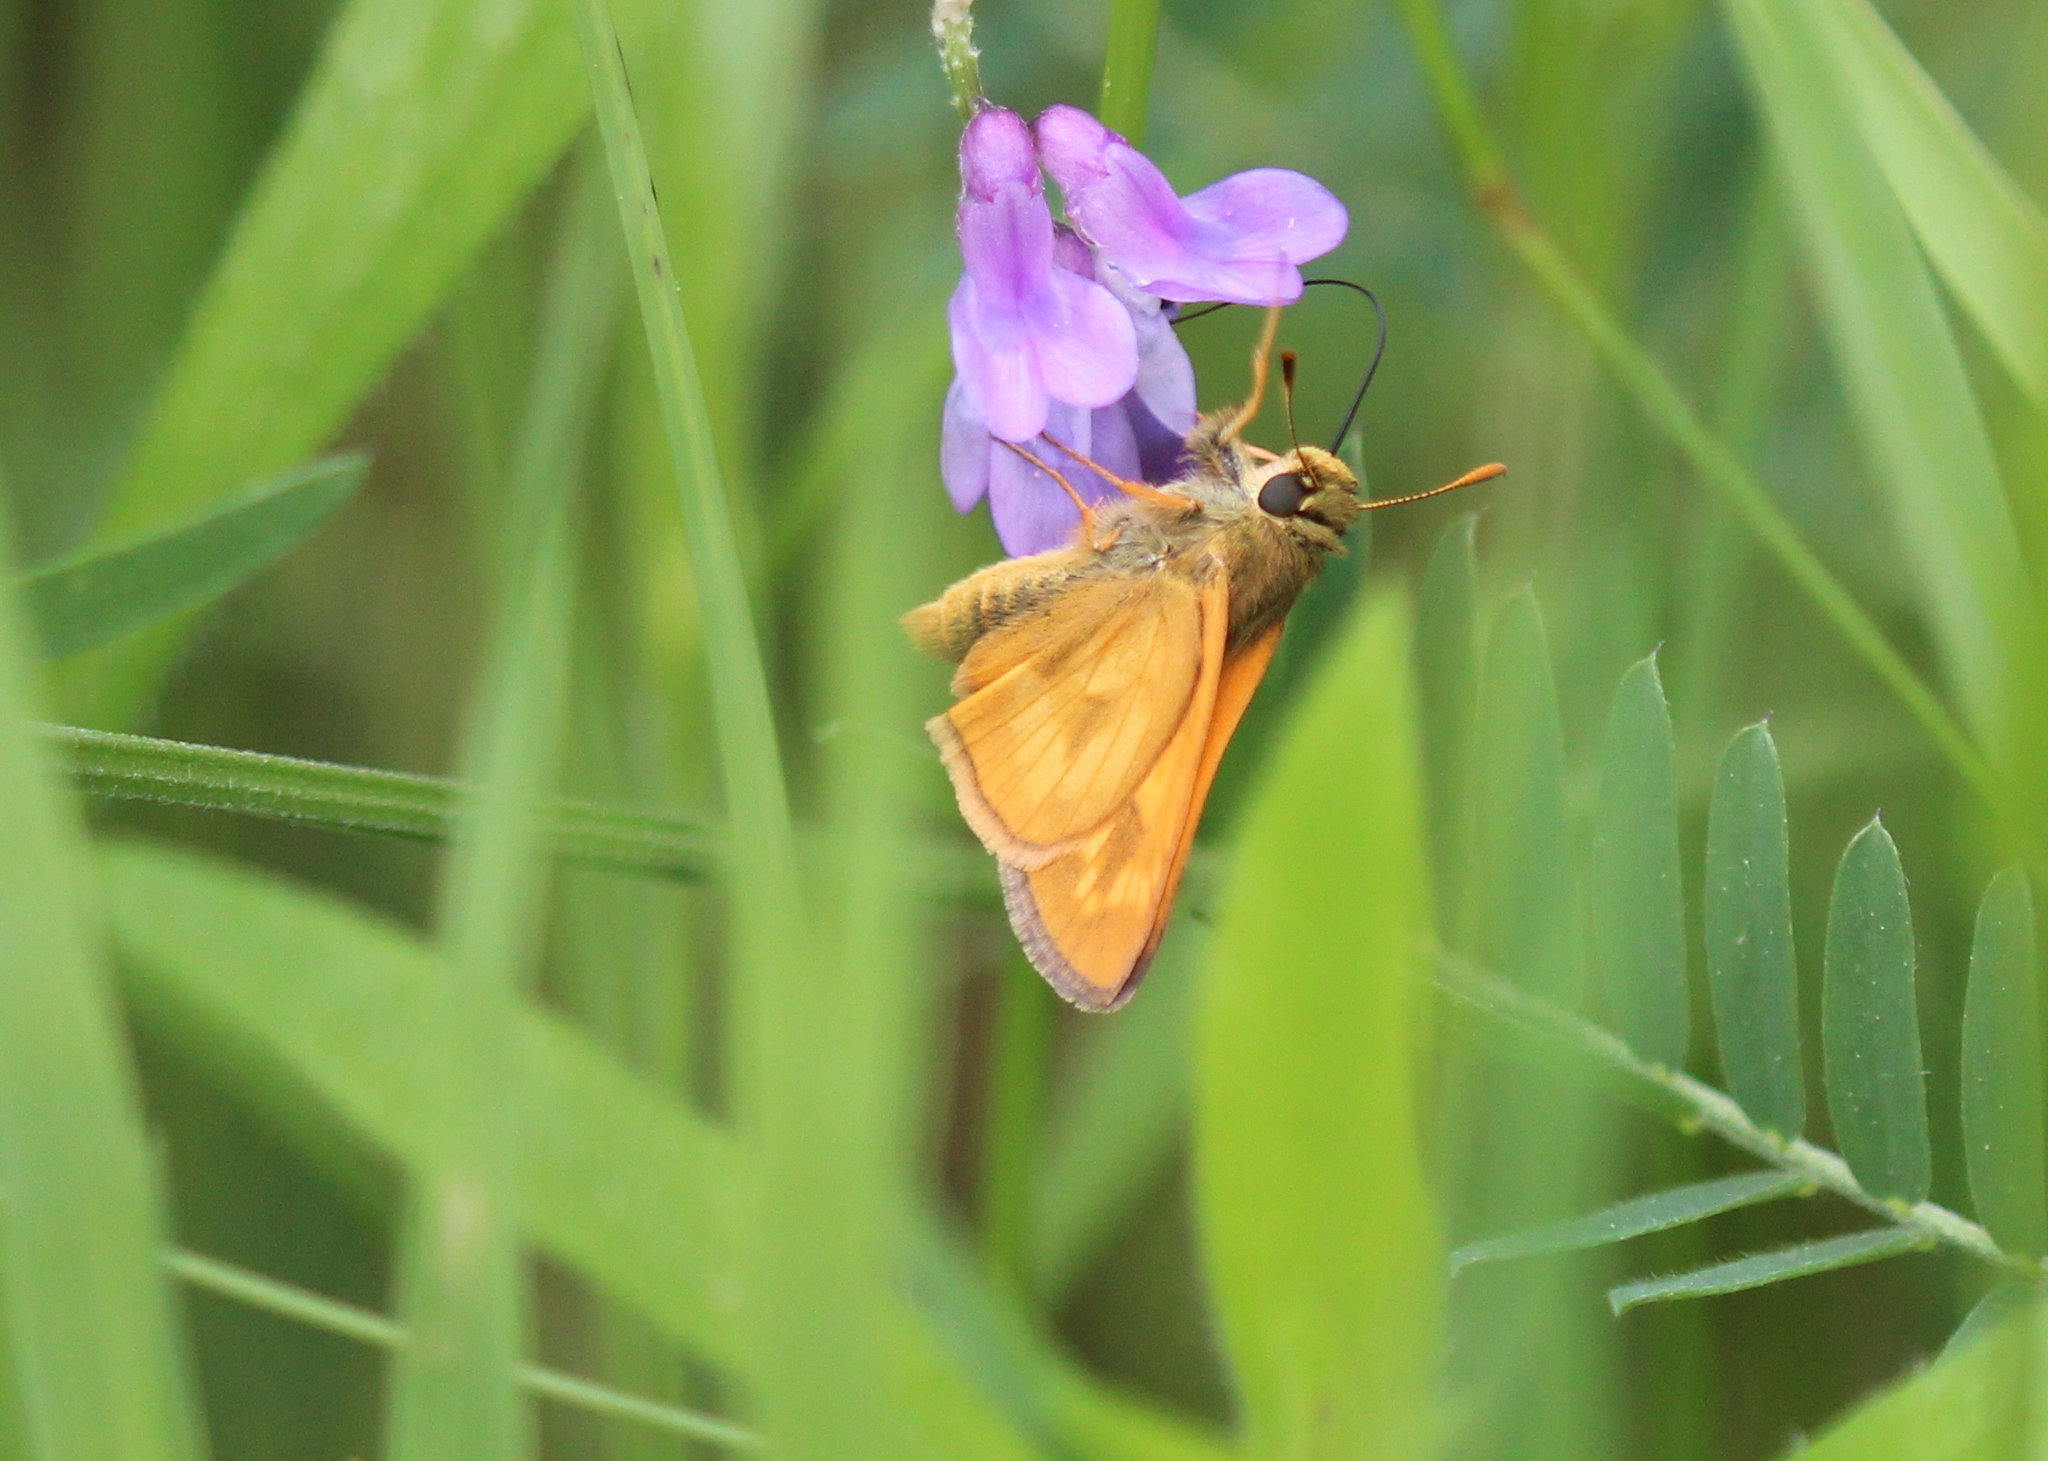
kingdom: Animalia
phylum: Arthropoda
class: Insecta
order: Lepidoptera
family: Hesperiidae
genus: Polites
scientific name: Polites mystic
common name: Long dash
